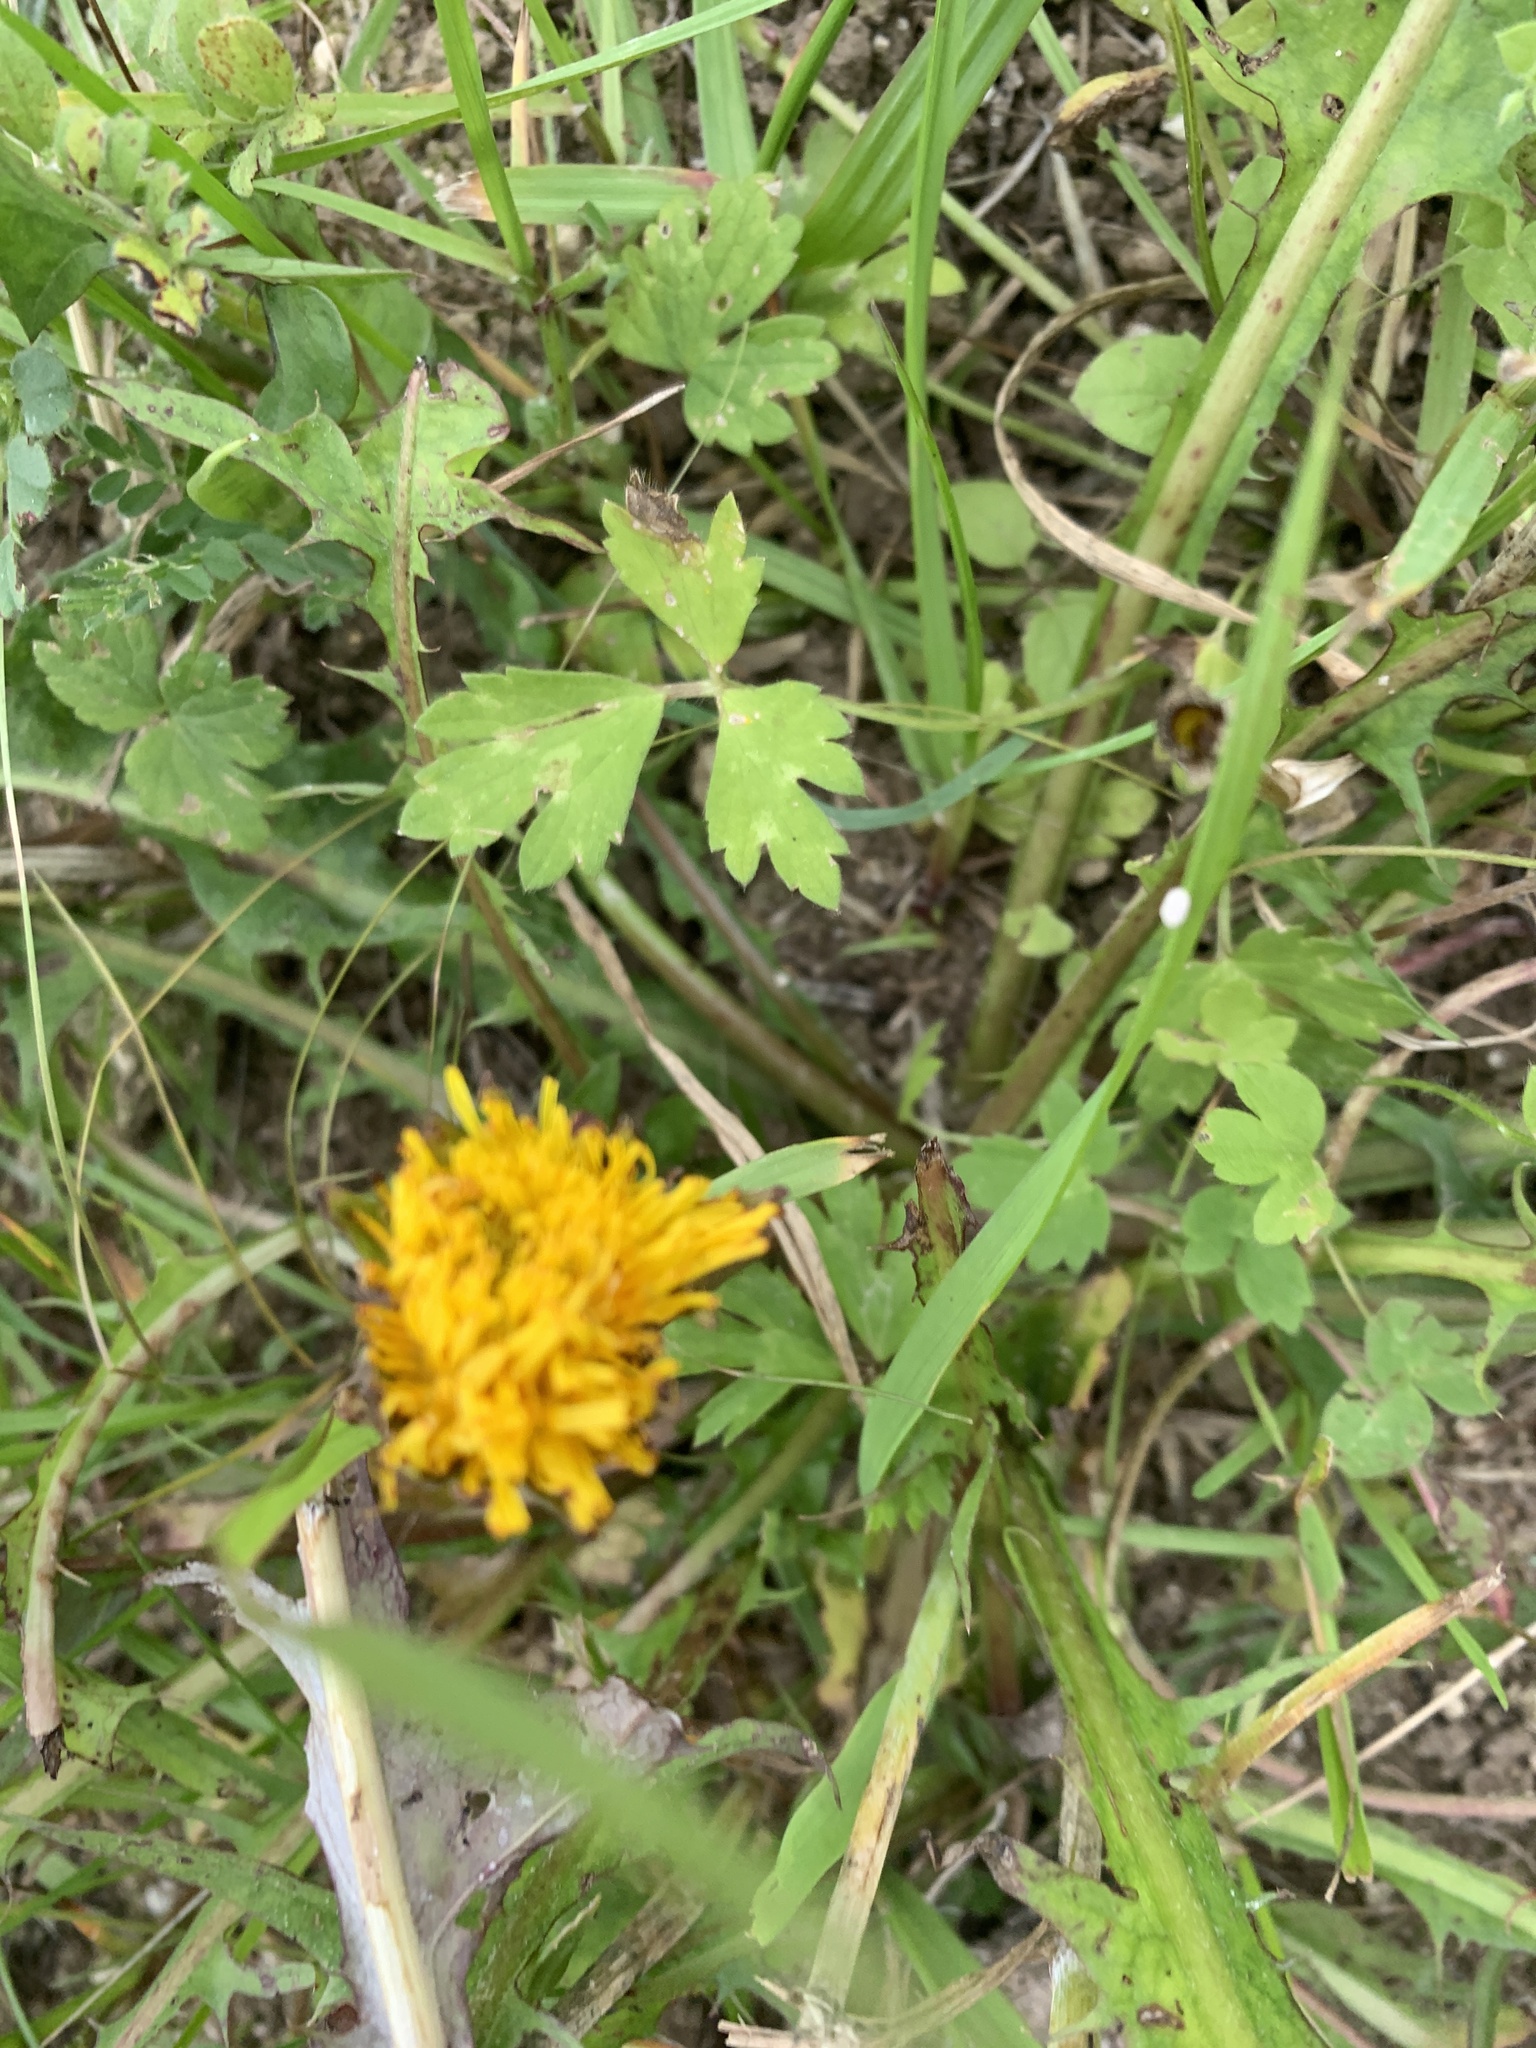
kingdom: Plantae
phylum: Tracheophyta
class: Magnoliopsida
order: Asterales
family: Asteraceae
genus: Taraxacum
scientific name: Taraxacum officinale
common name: Common dandelion
